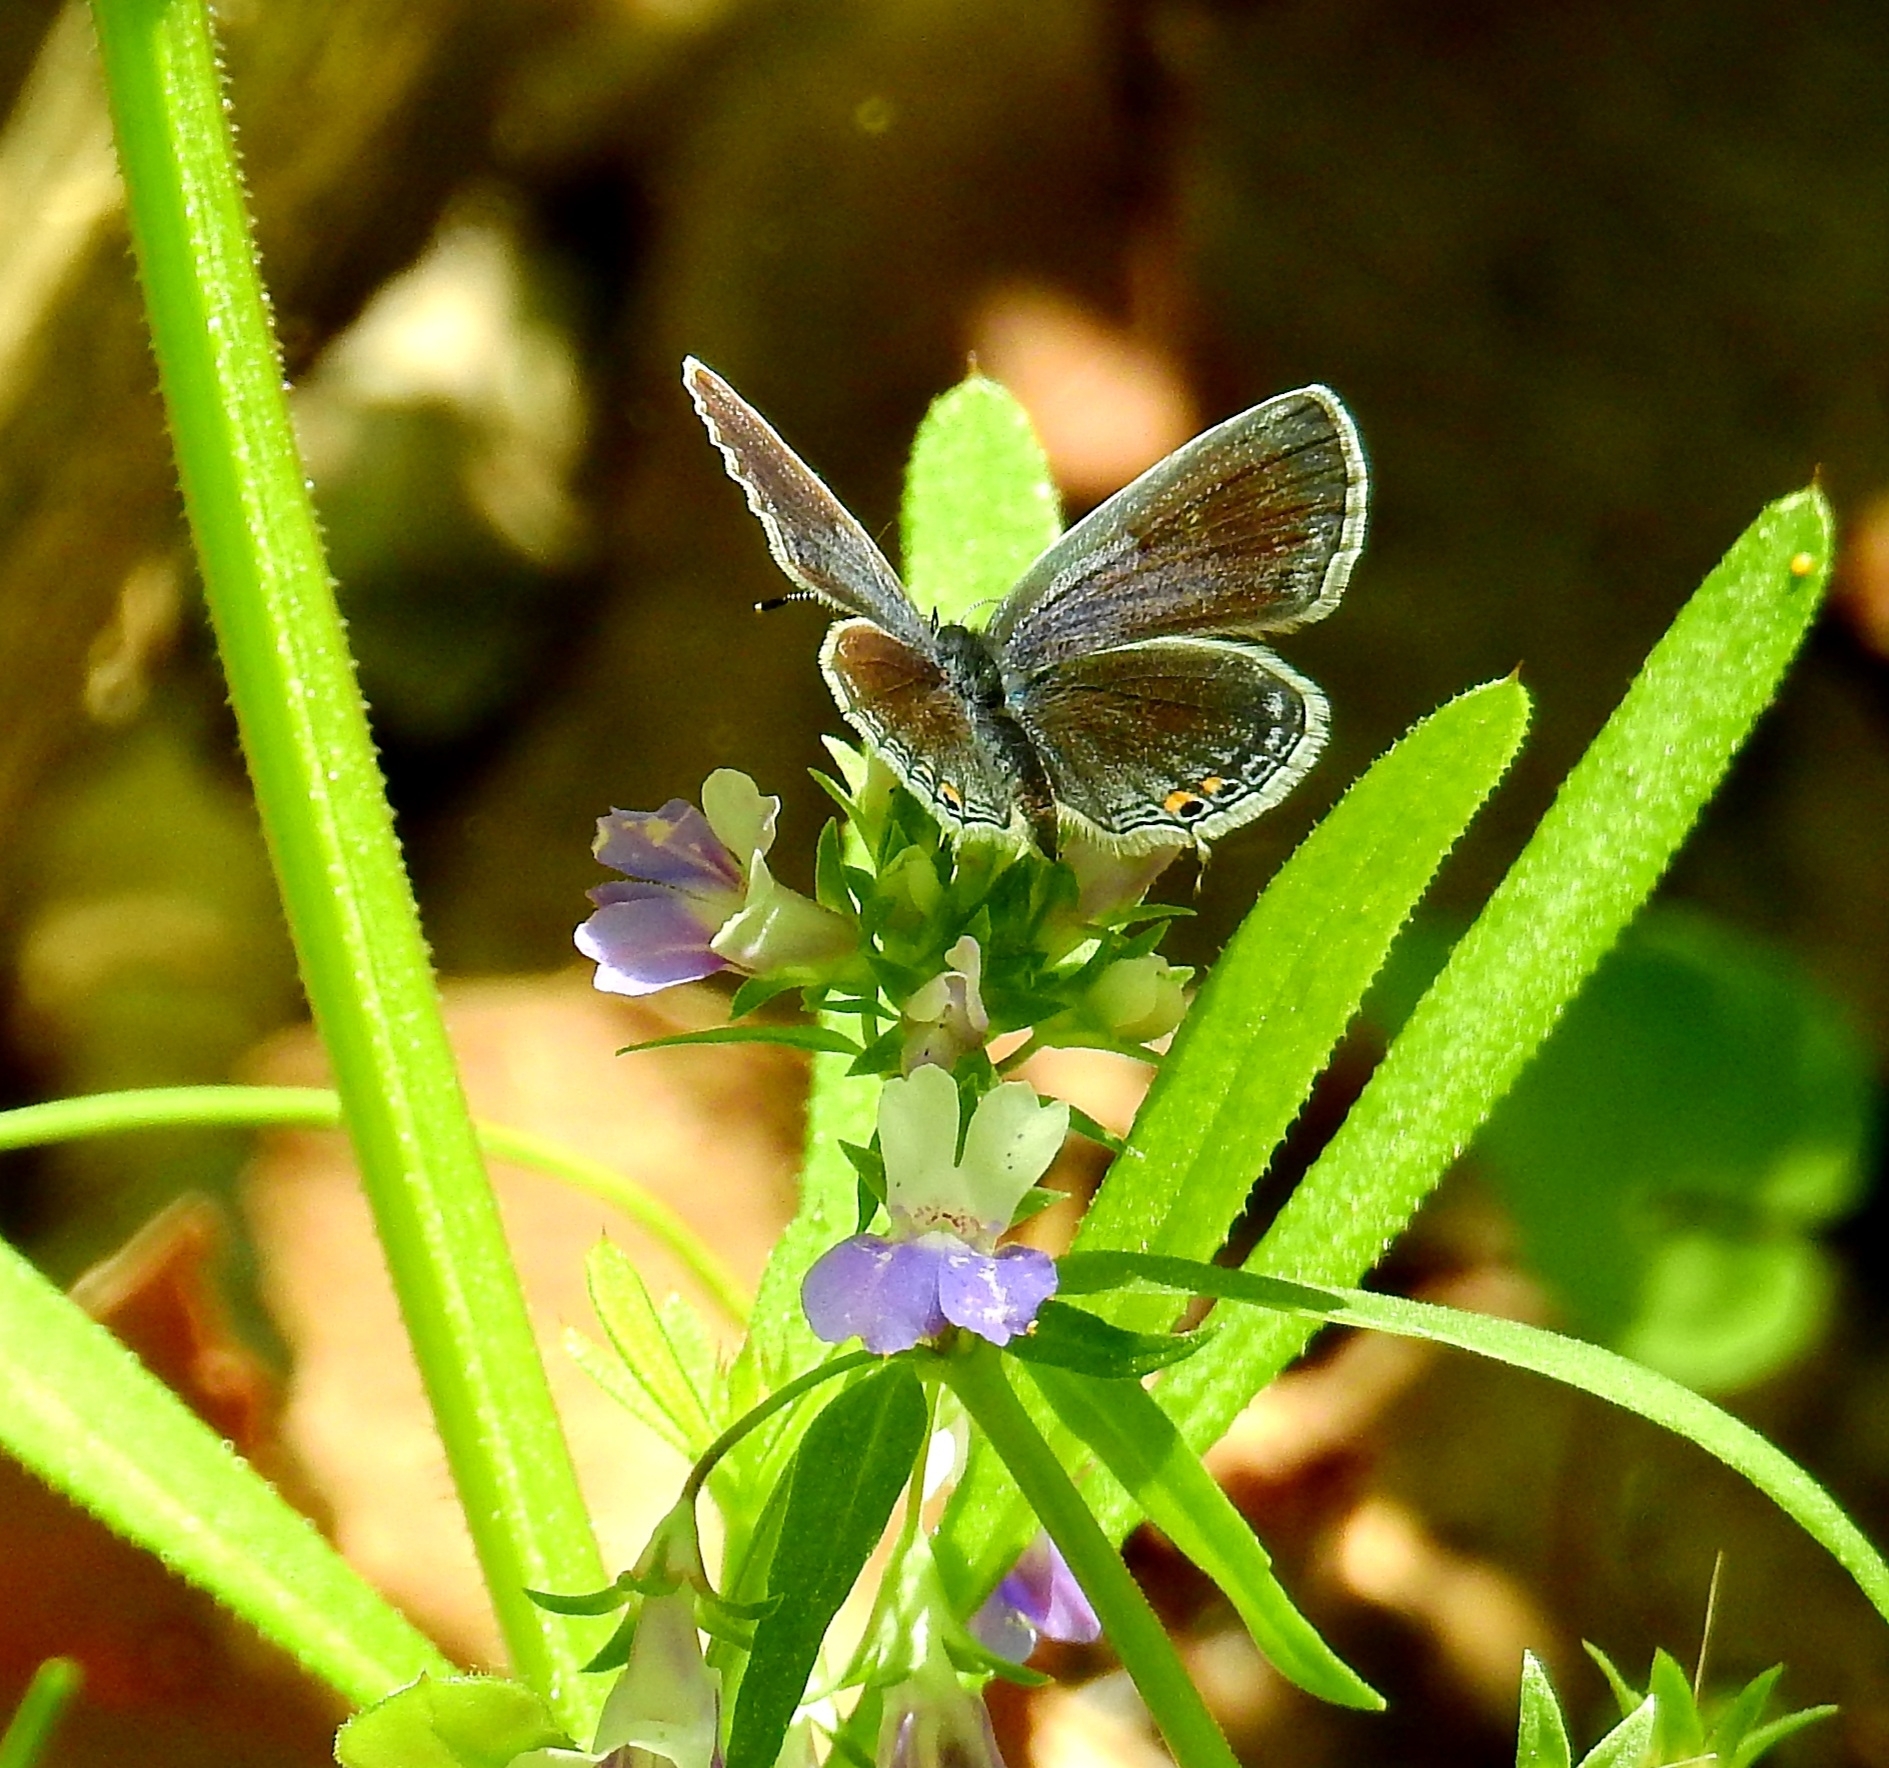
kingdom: Animalia
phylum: Arthropoda
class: Insecta
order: Lepidoptera
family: Lycaenidae
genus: Elkalyce
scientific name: Elkalyce comyntas
